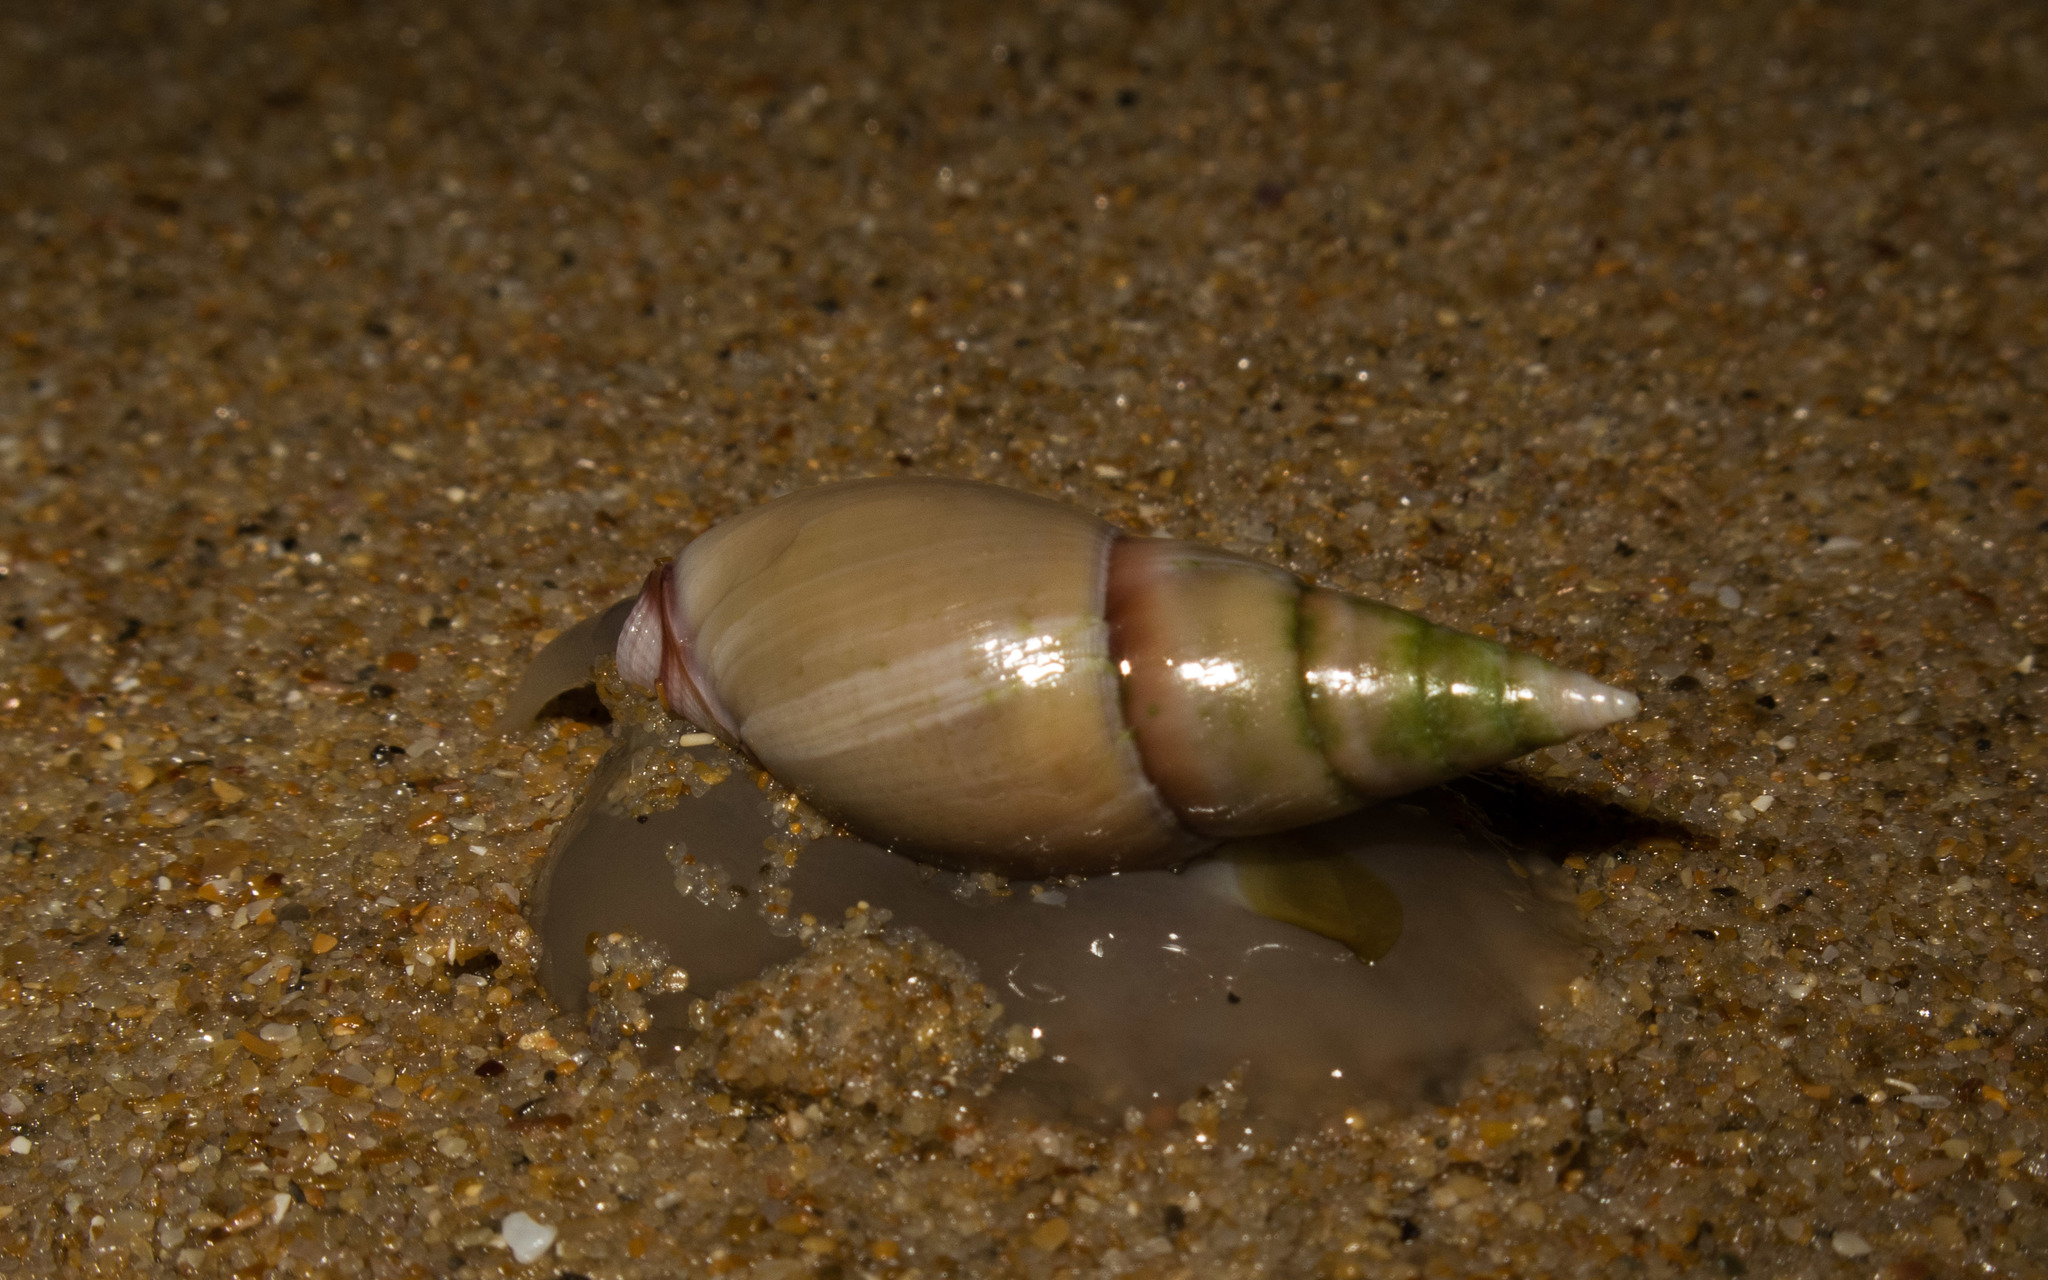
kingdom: Animalia
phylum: Mollusca
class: Gastropoda
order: Neogastropoda
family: Nassariidae
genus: Bullia
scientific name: Bullia rhodostoma
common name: Smooth plough shell
